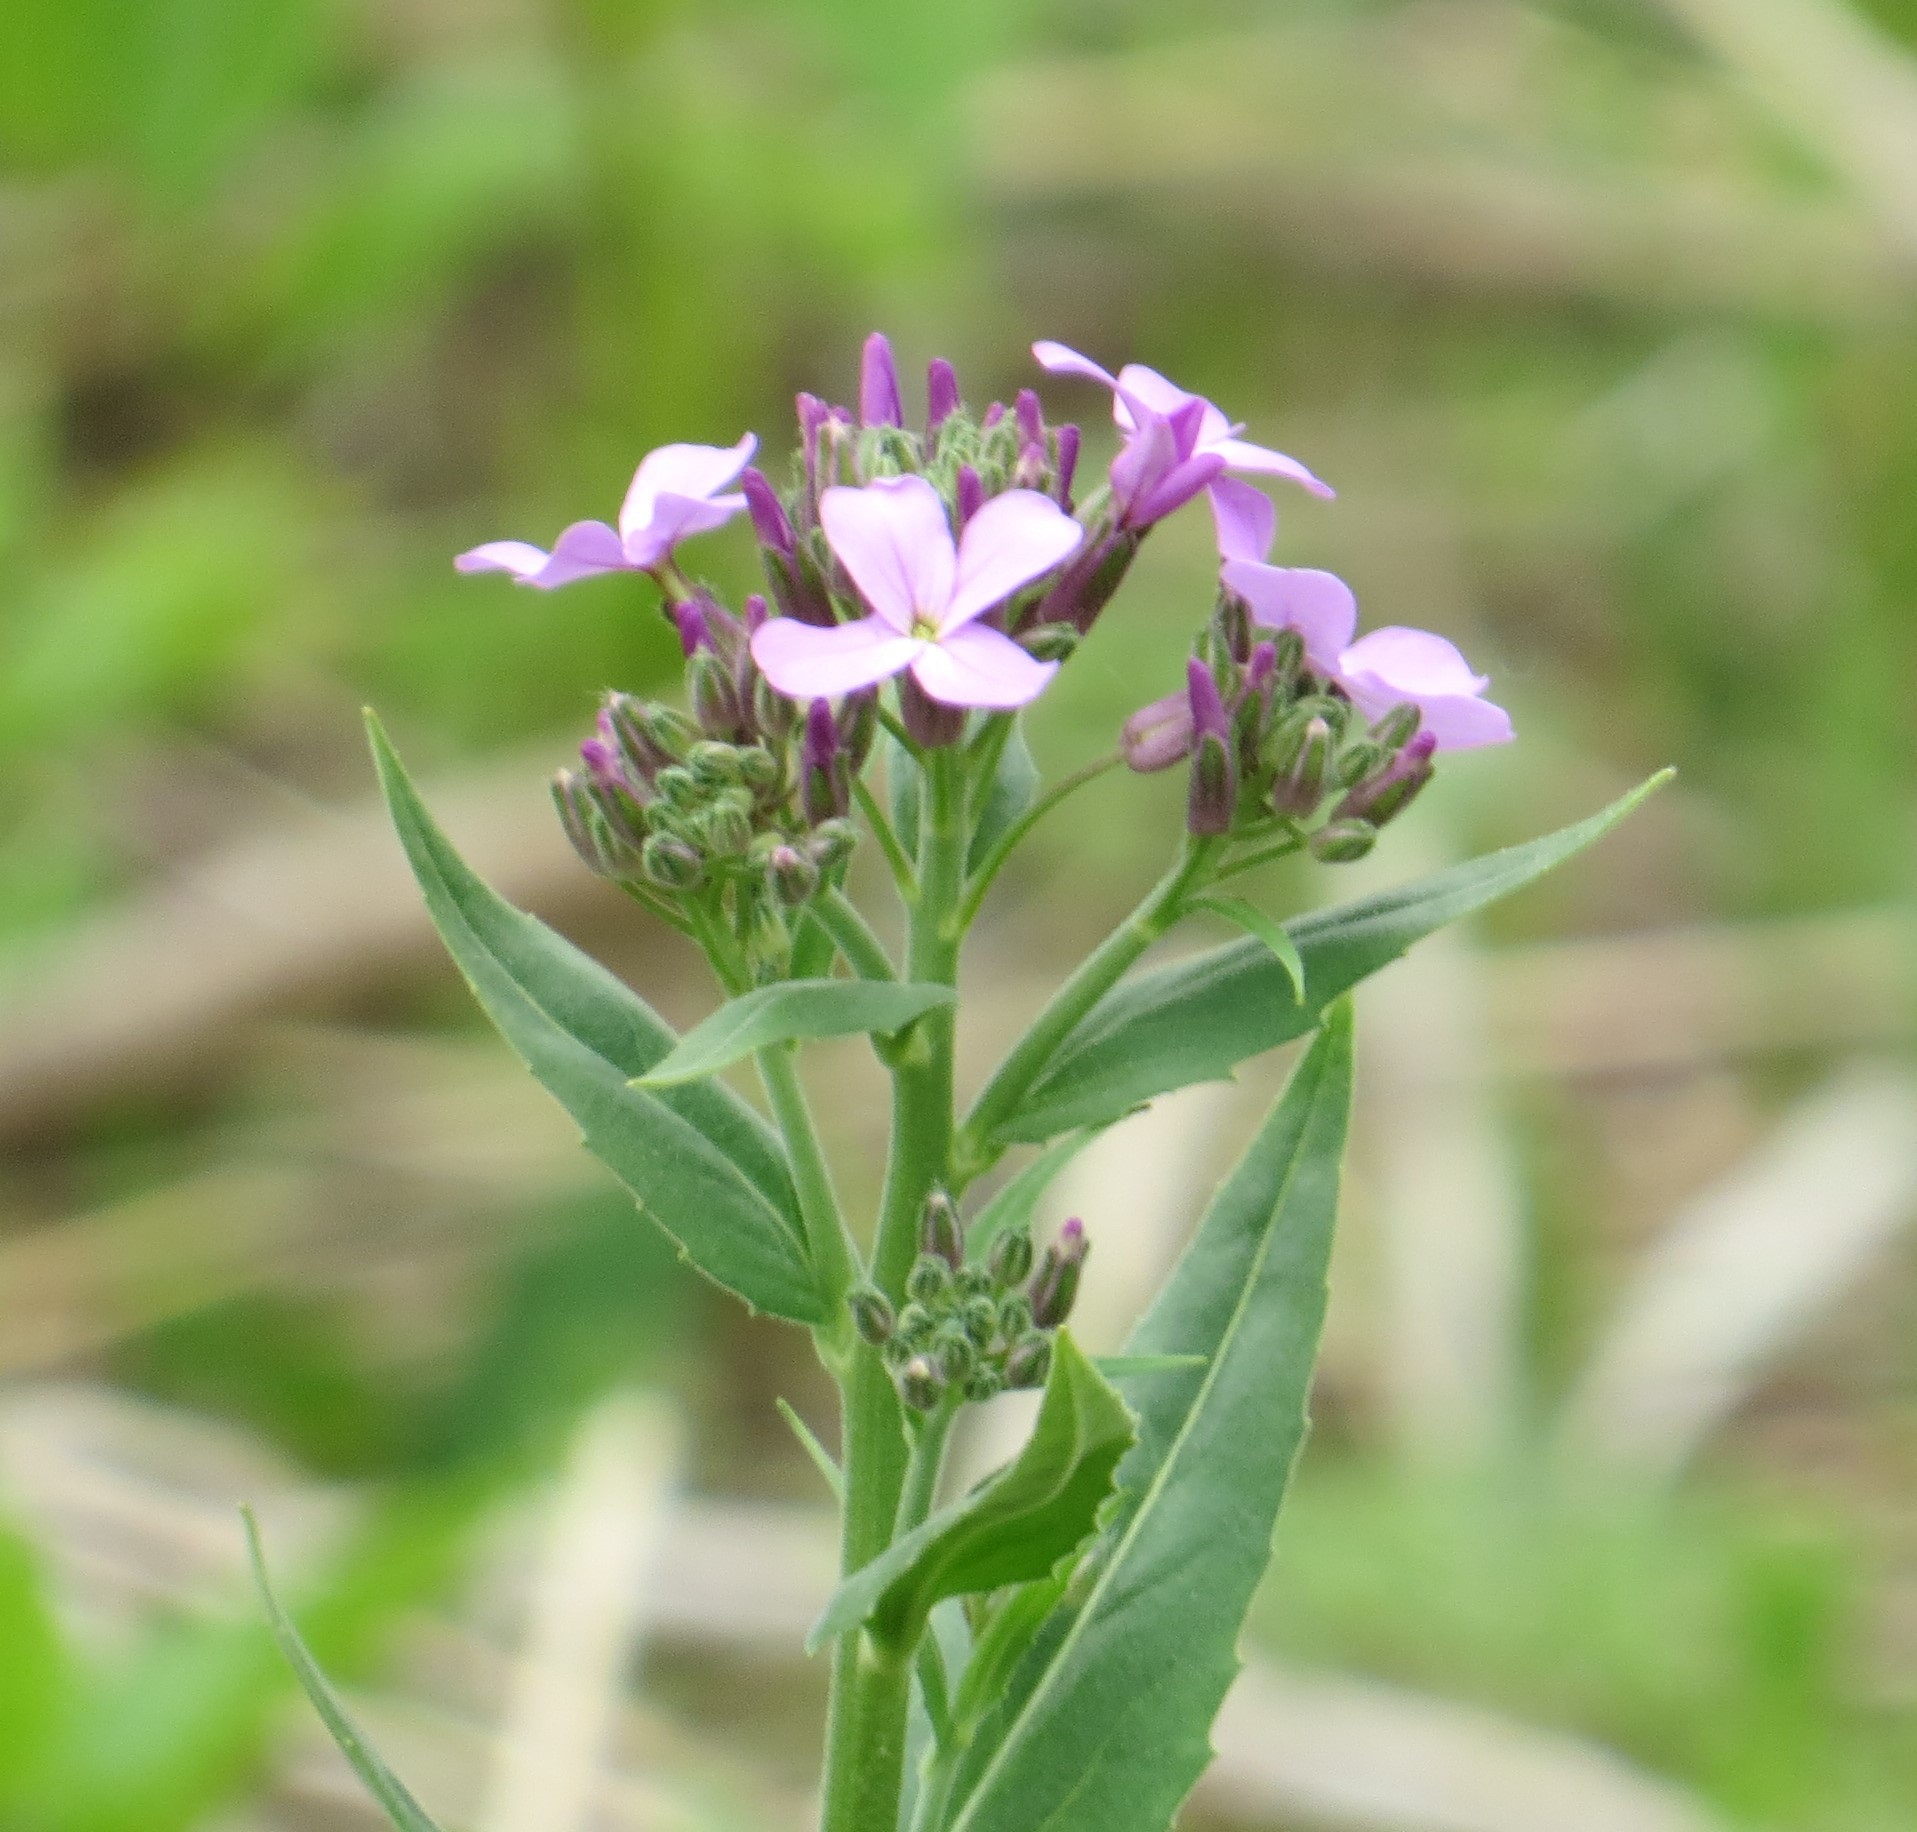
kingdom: Plantae
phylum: Tracheophyta
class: Magnoliopsida
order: Brassicales
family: Brassicaceae
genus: Hesperis
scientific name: Hesperis matronalis
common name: Dame's-violet
